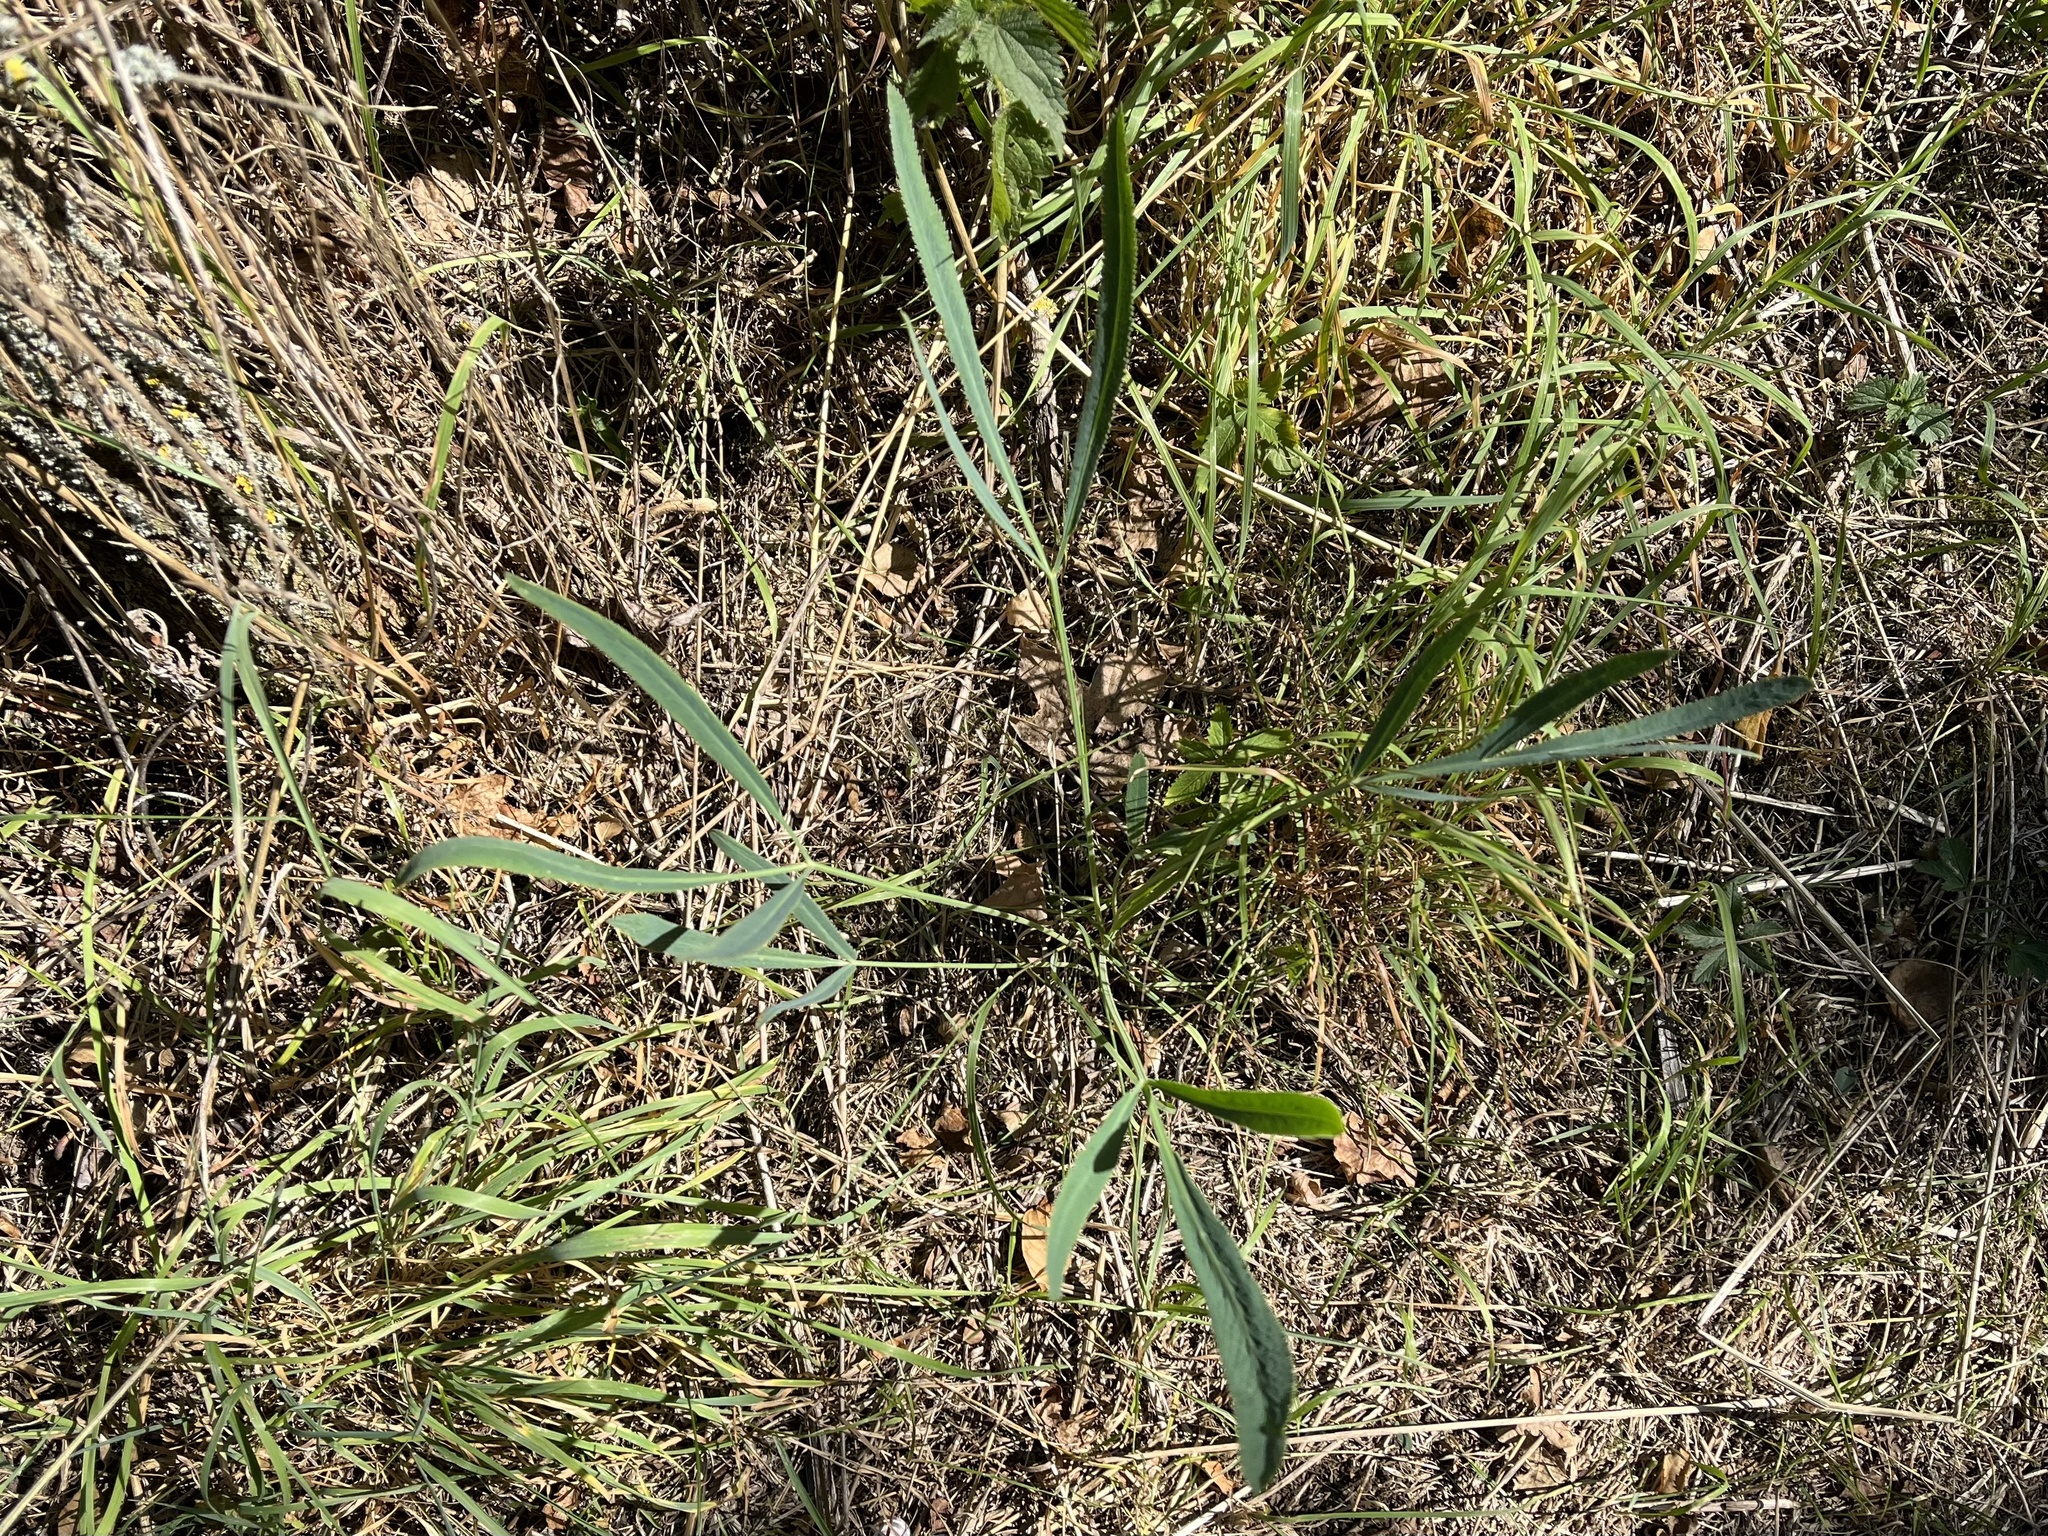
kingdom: Plantae
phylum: Tracheophyta
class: Magnoliopsida
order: Apiales
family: Apiaceae
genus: Falcaria
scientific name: Falcaria vulgaris
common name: Longleaf
